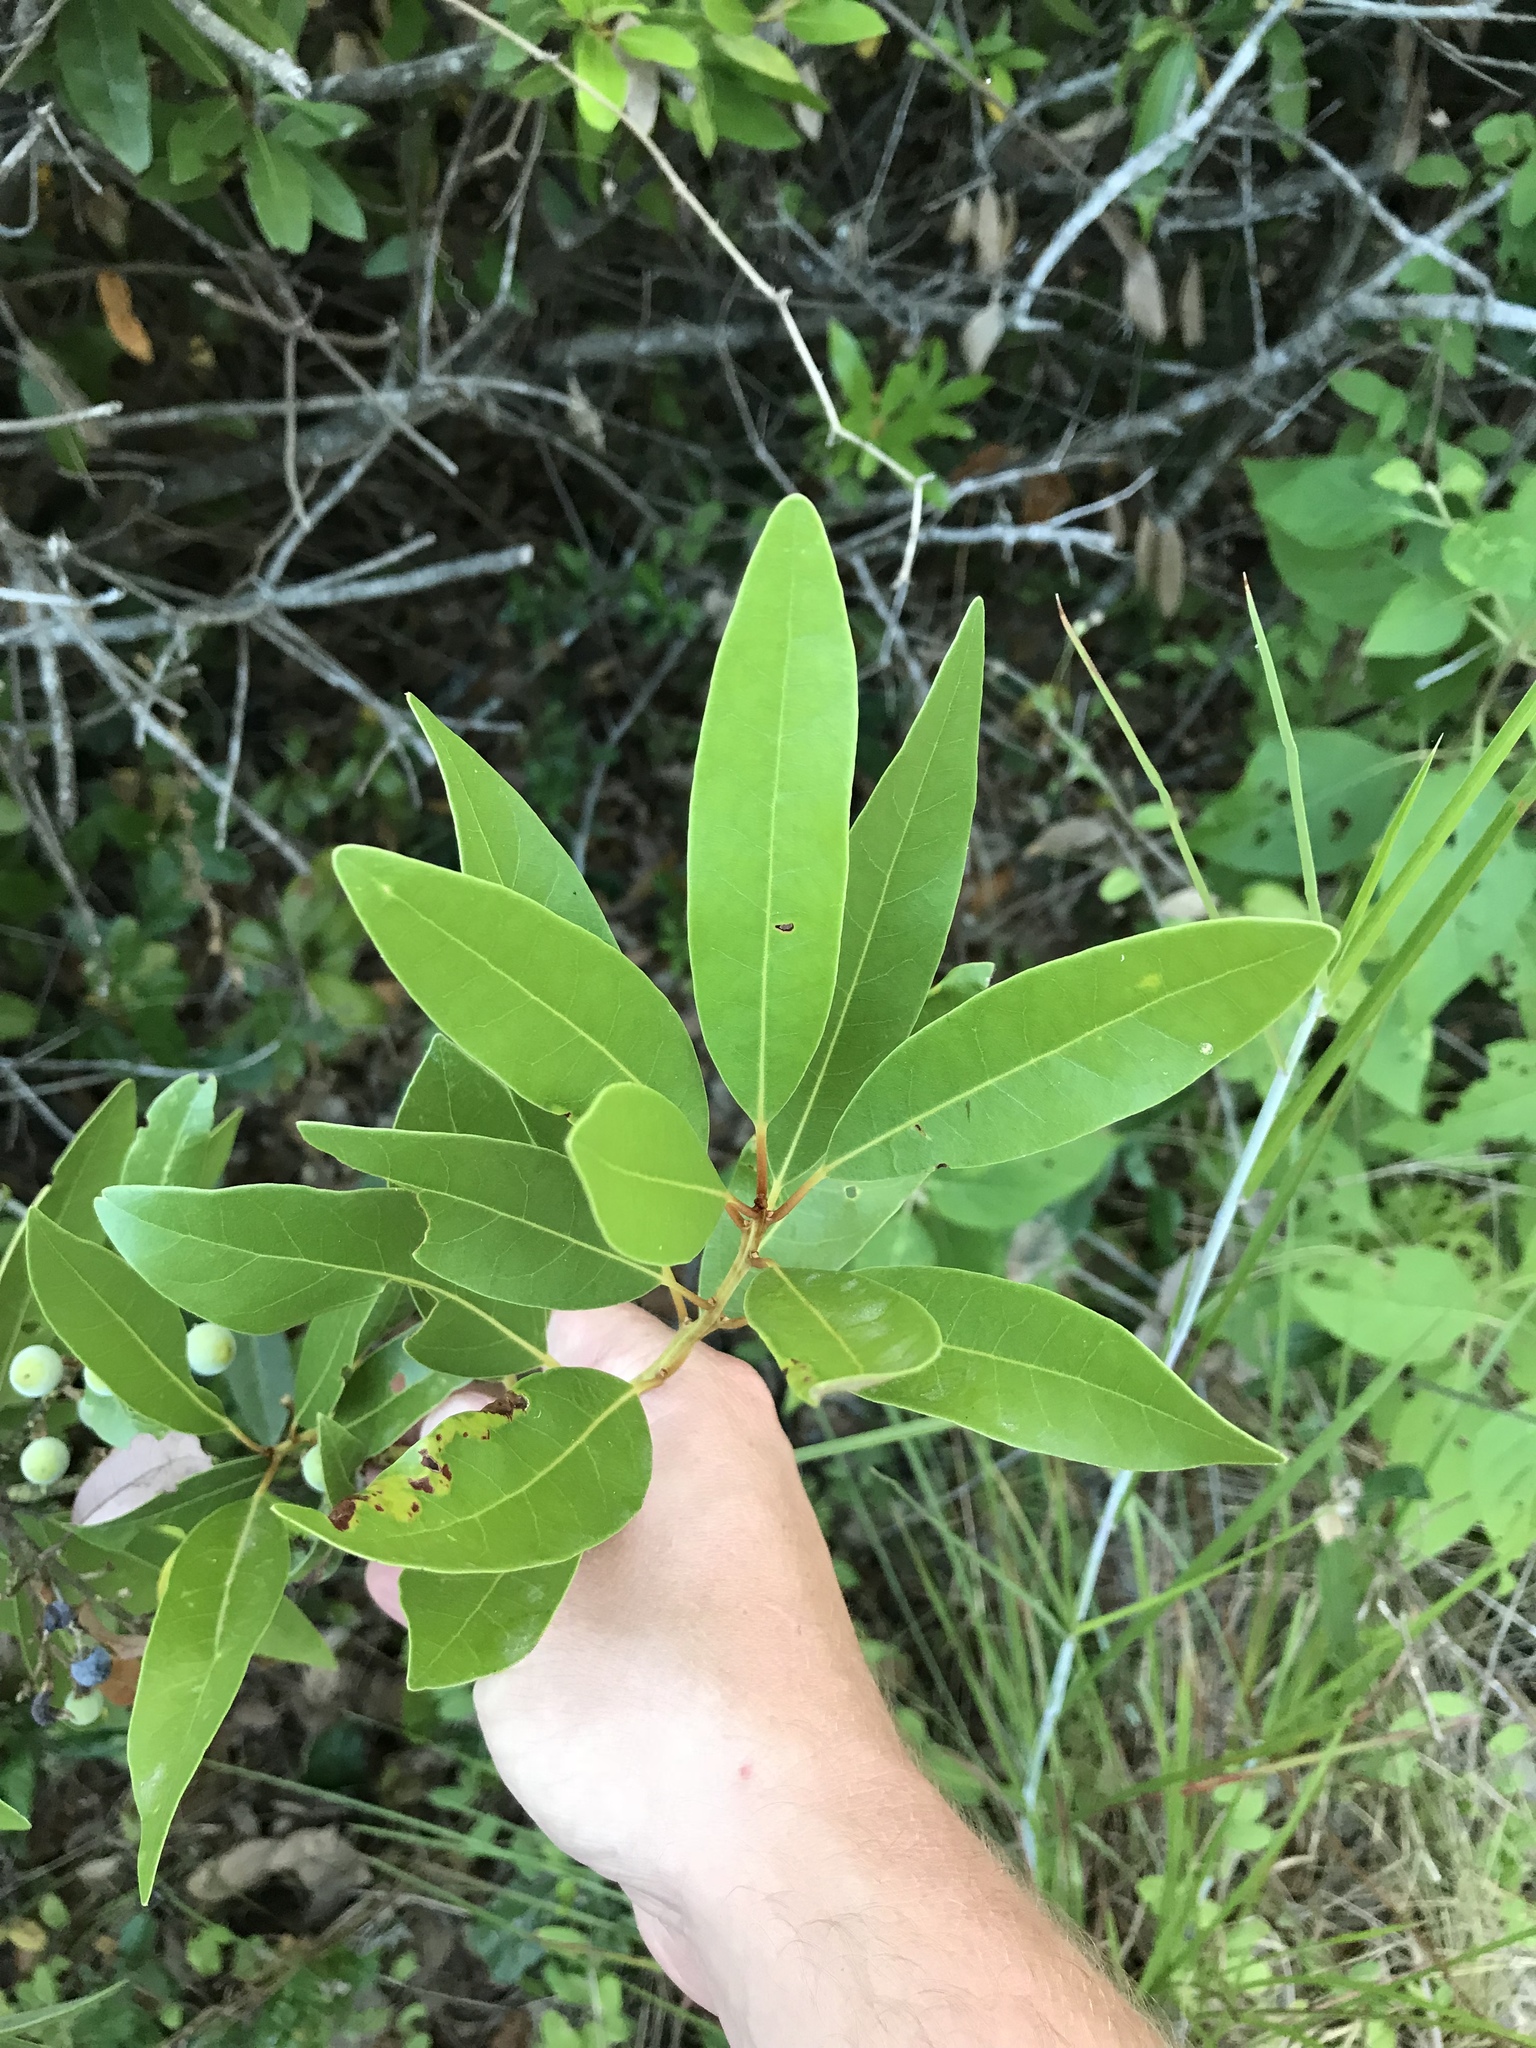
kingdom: Plantae
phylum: Tracheophyta
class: Magnoliopsida
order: Laurales
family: Lauraceae
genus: Persea
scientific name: Persea borbonia
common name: Redbay
